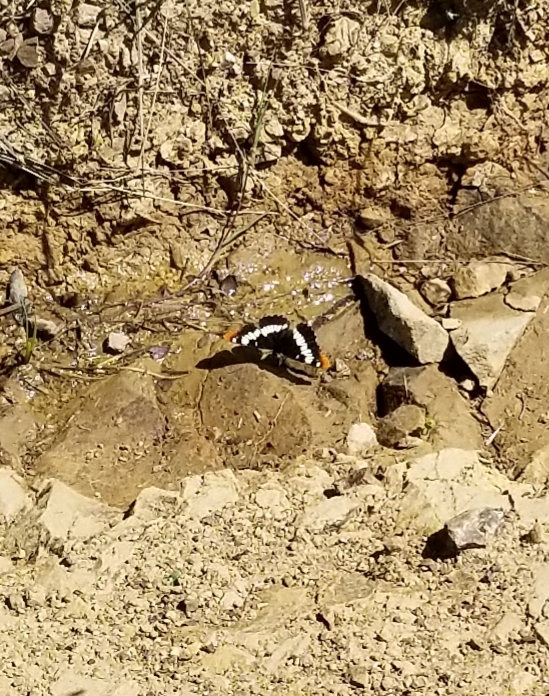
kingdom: Animalia
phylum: Arthropoda
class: Insecta
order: Lepidoptera
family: Nymphalidae
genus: Limenitis
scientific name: Limenitis lorquini
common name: Lorquin's admiral
